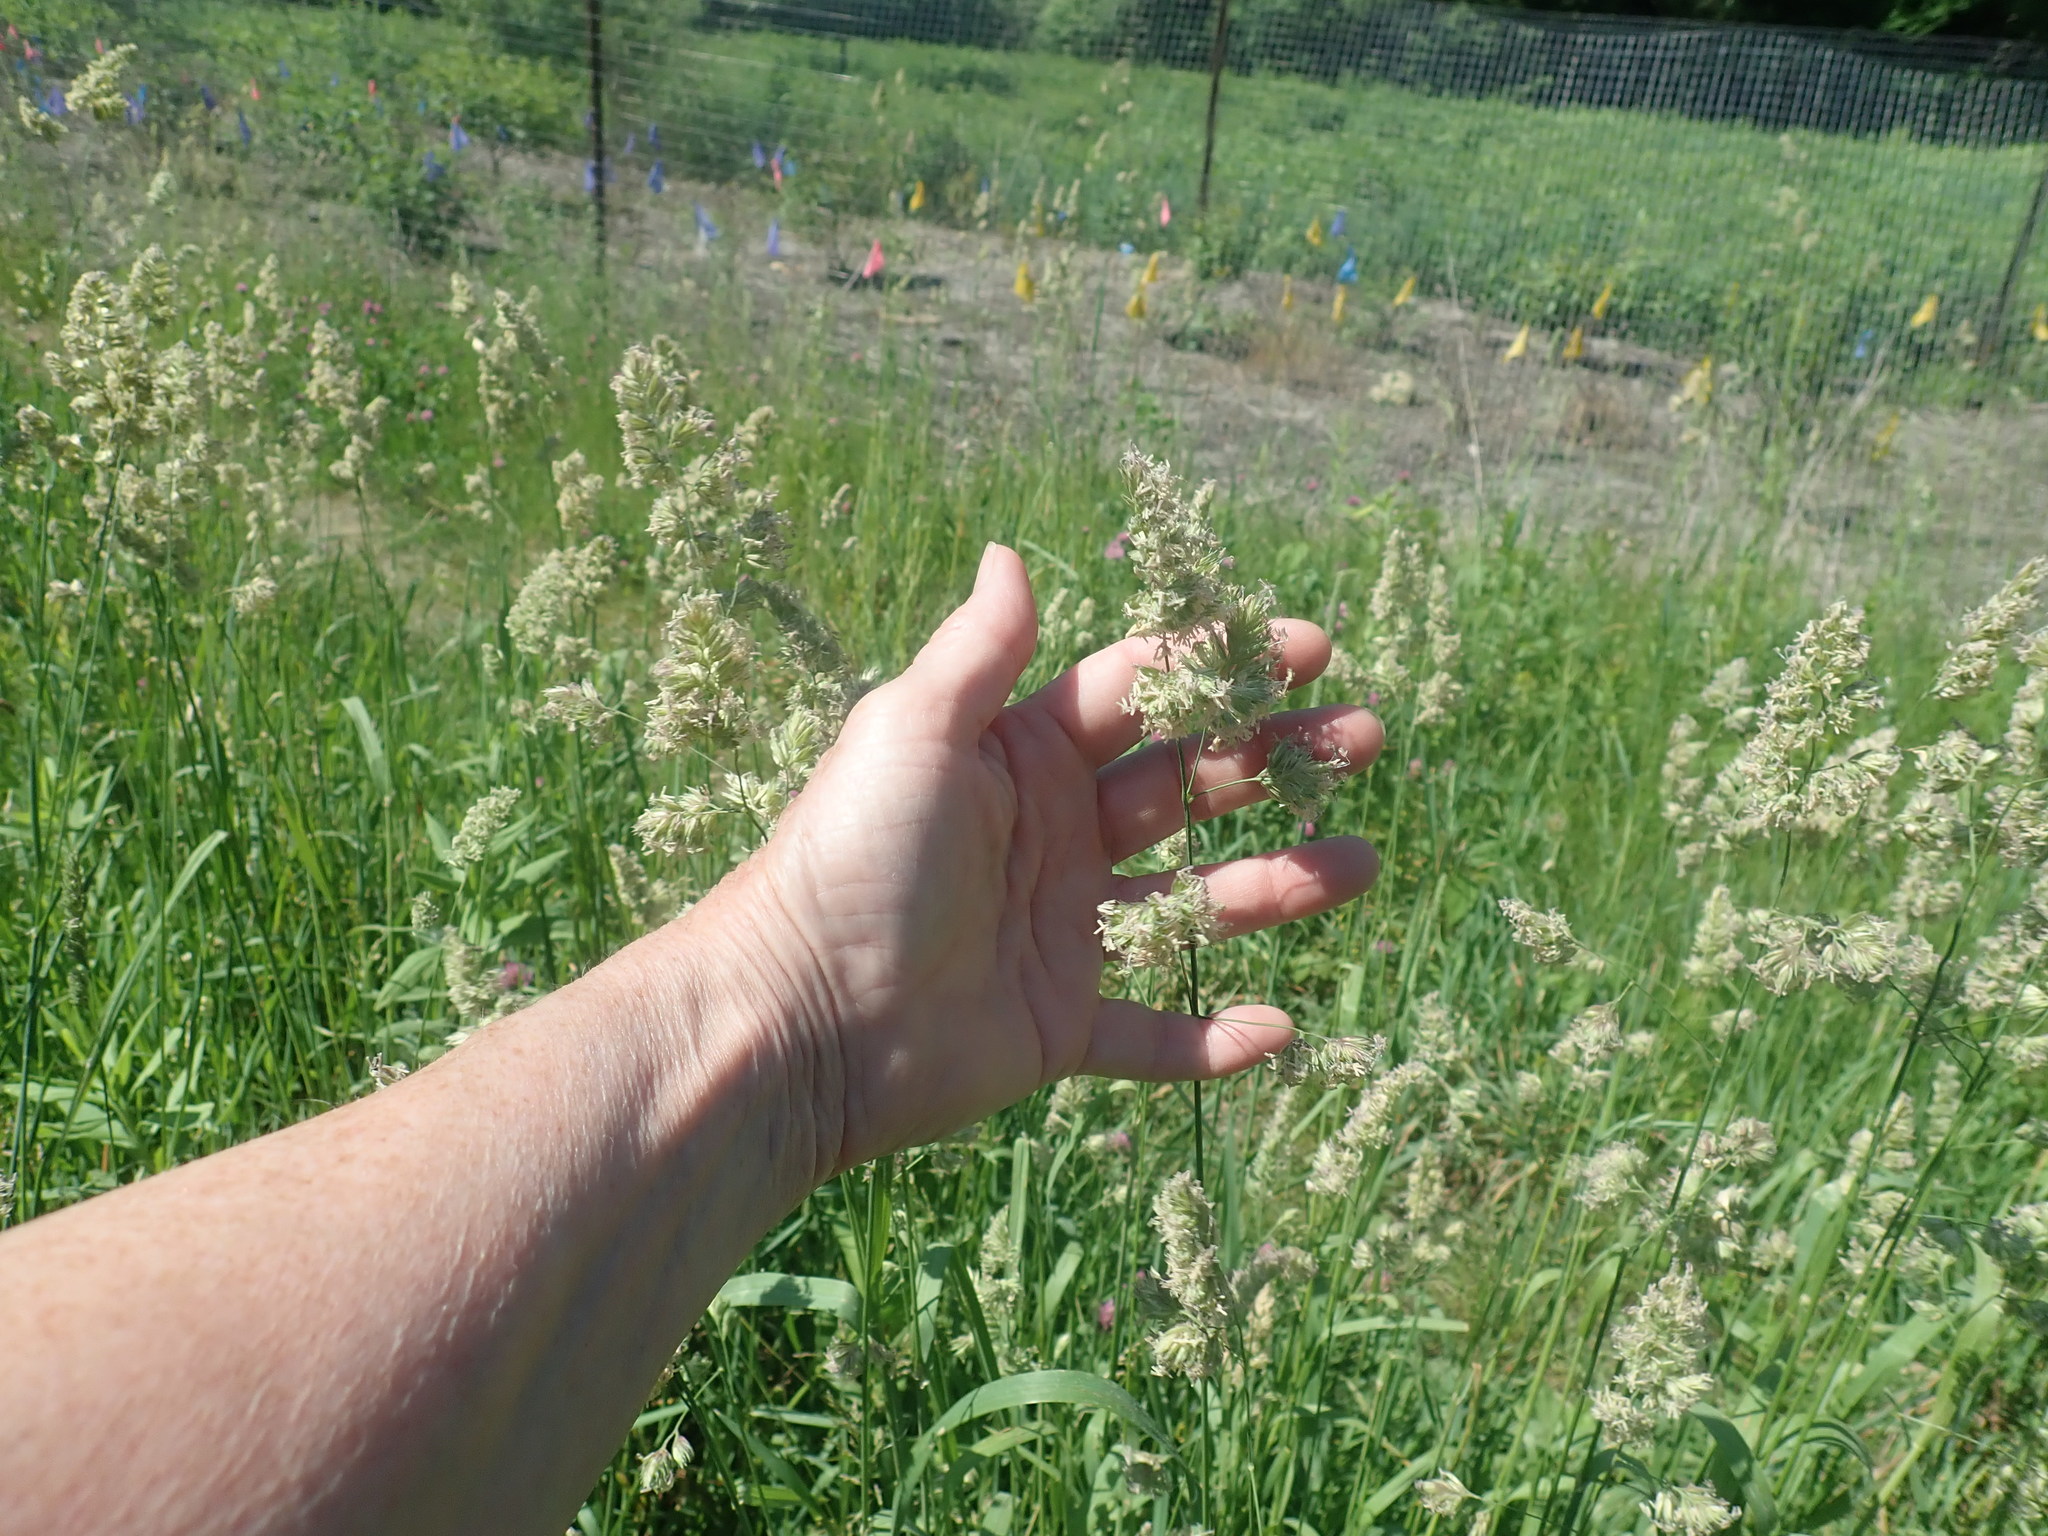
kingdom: Plantae
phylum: Tracheophyta
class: Liliopsida
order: Poales
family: Poaceae
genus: Dactylis
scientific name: Dactylis glomerata
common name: Orchardgrass
